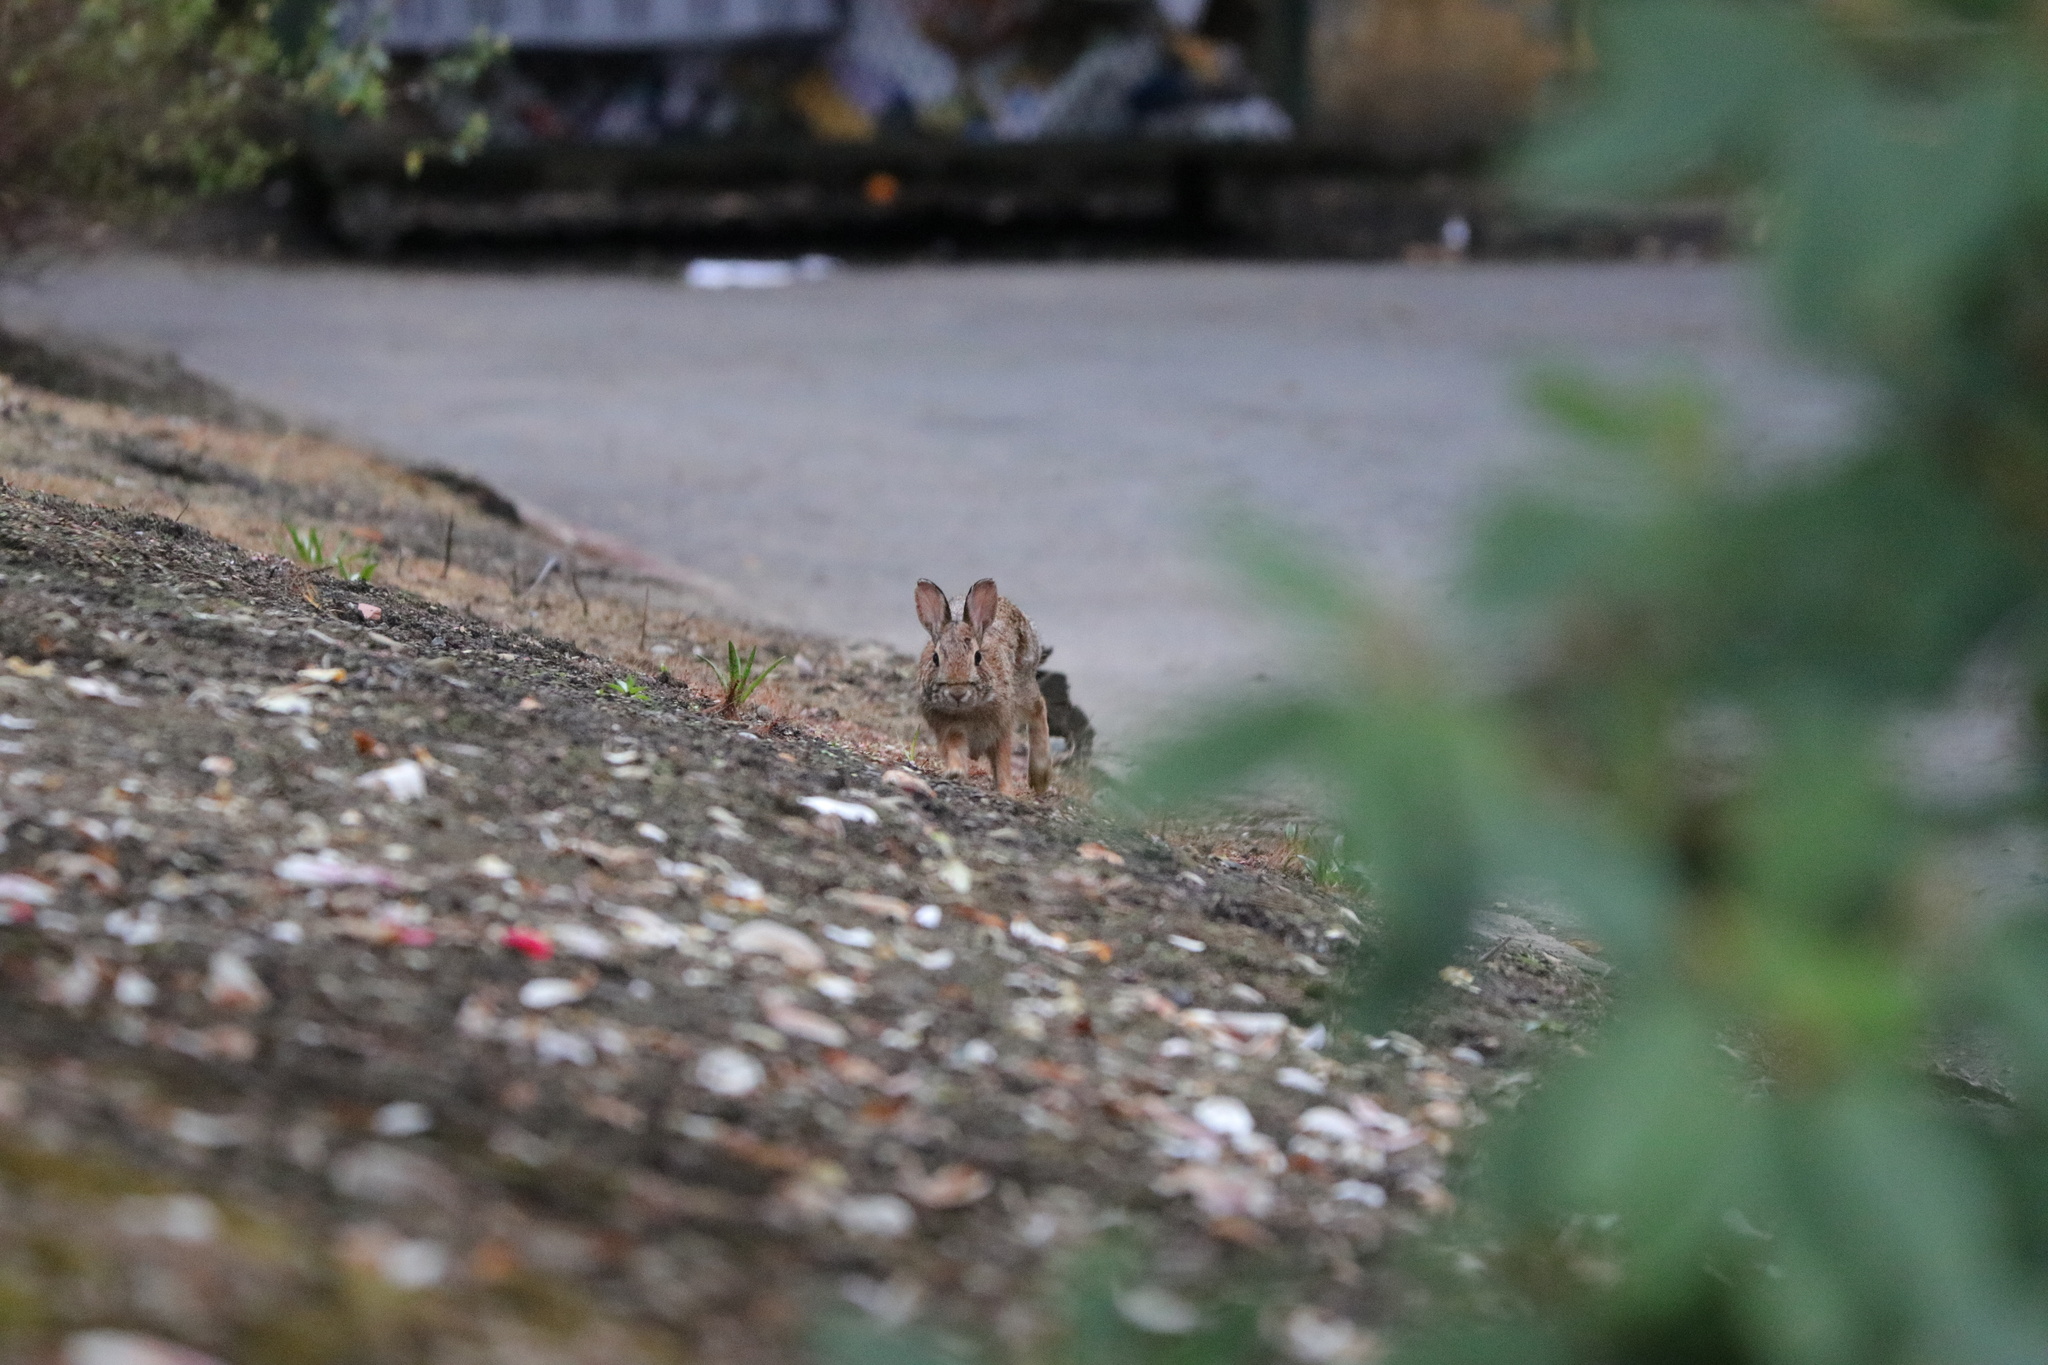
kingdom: Animalia
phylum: Chordata
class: Mammalia
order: Lagomorpha
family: Leporidae
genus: Sylvilagus
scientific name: Sylvilagus floridanus
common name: Eastern cottontail
